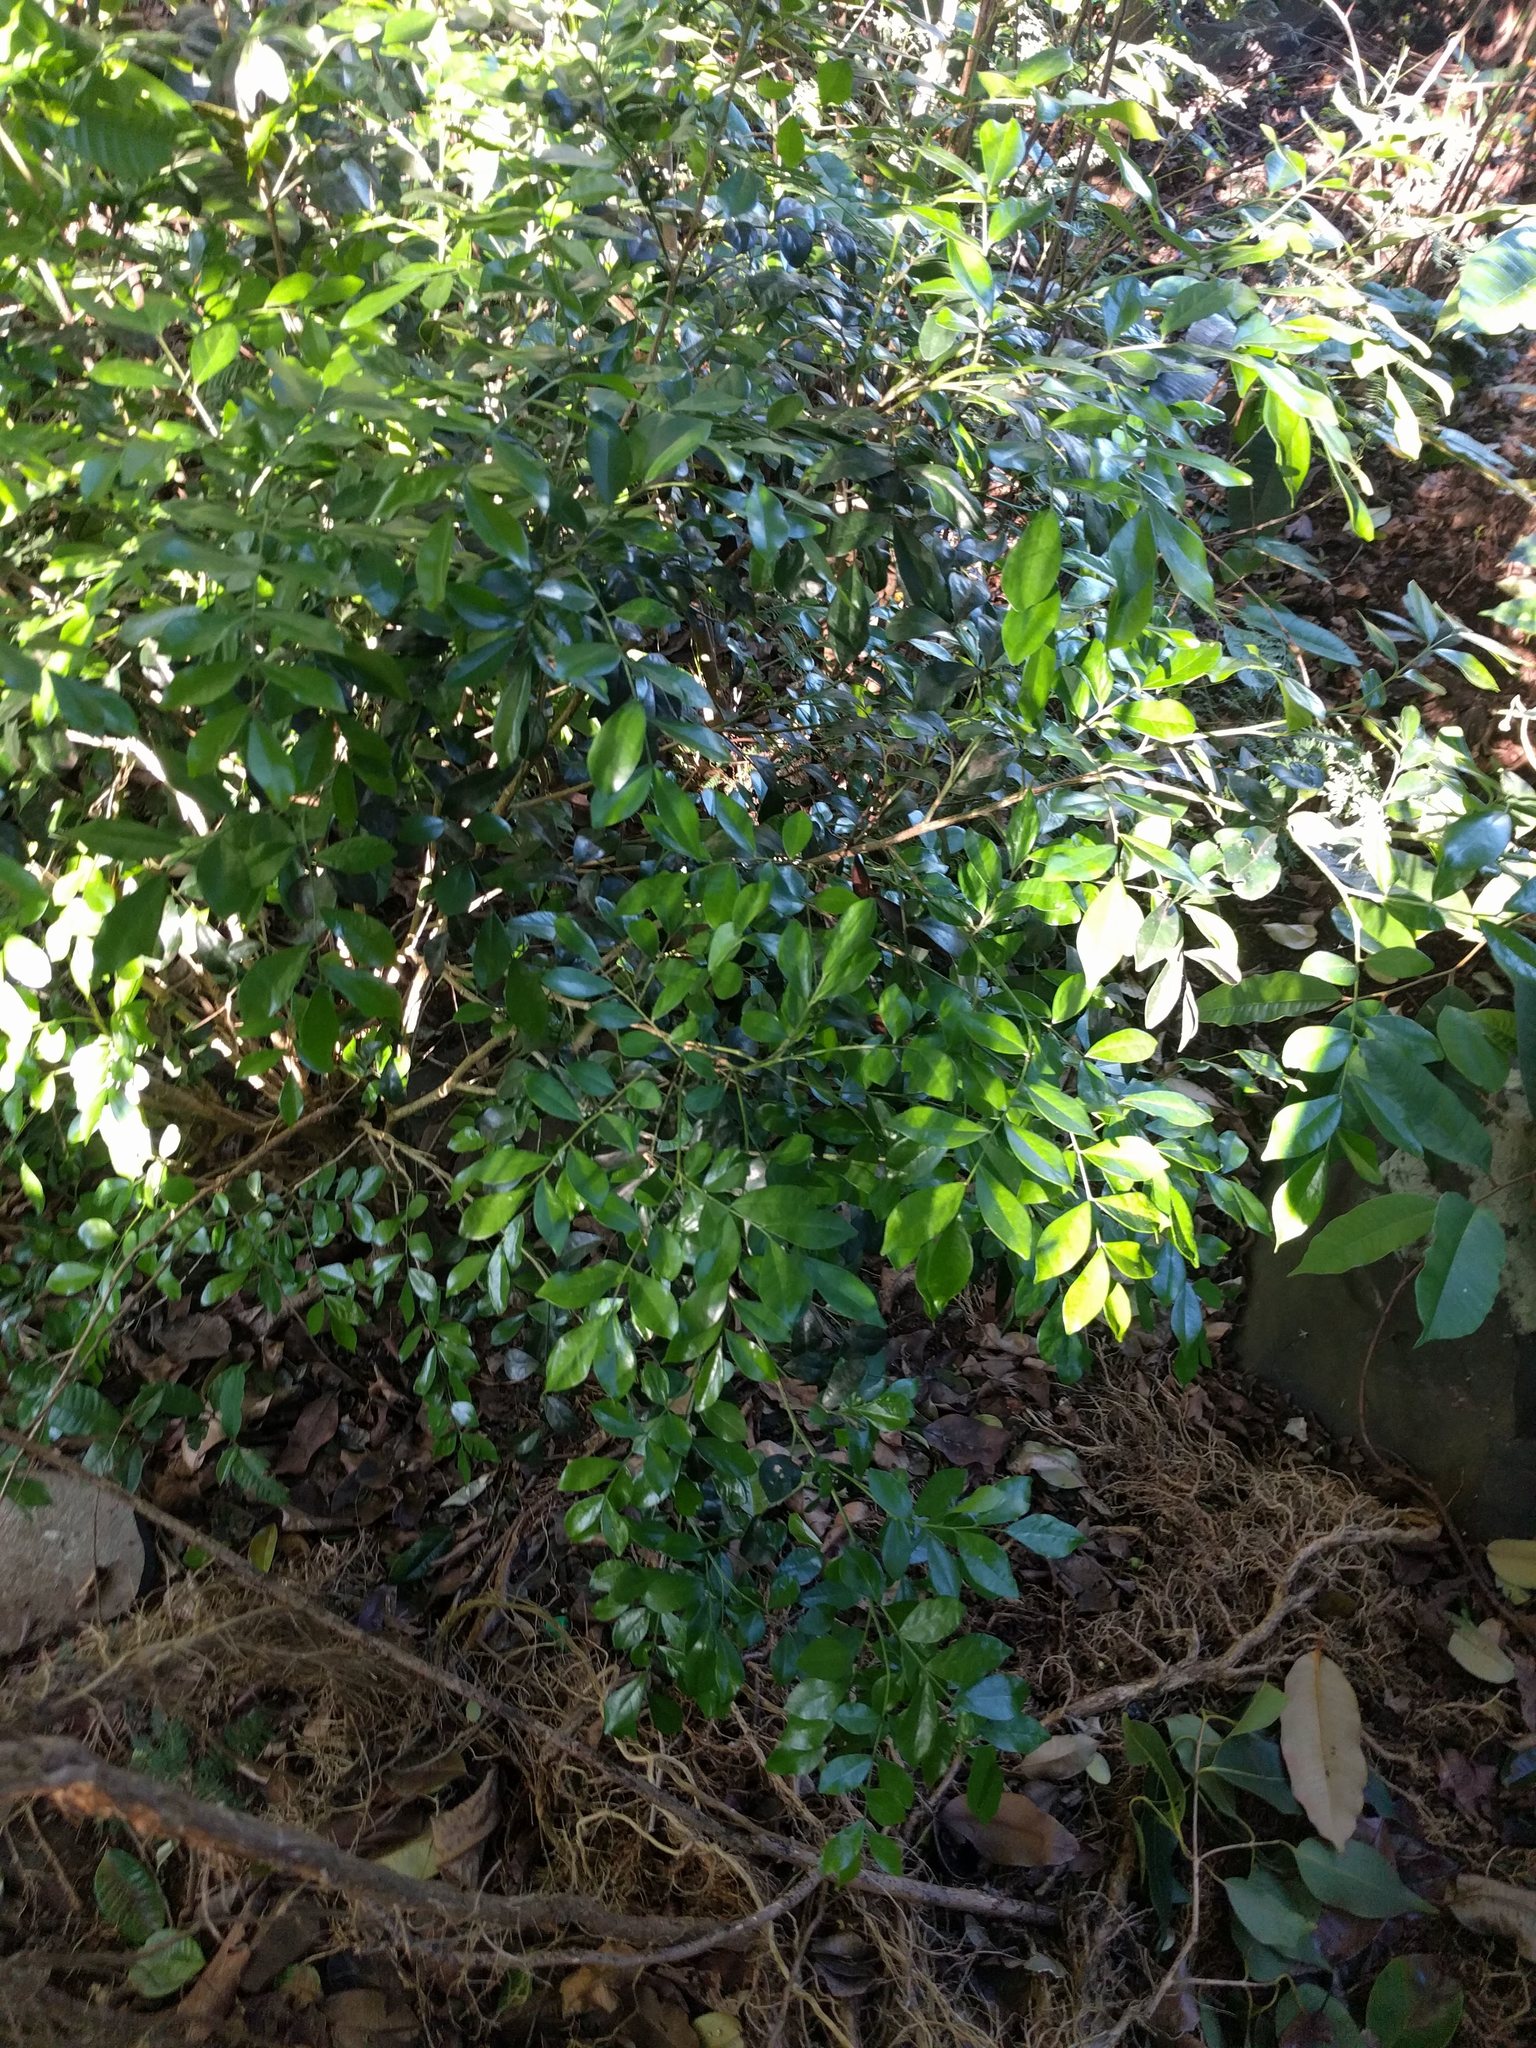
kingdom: Plantae
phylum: Tracheophyta
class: Magnoliopsida
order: Sapindales
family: Rutaceae
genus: Murraya
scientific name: Murraya paniculata
